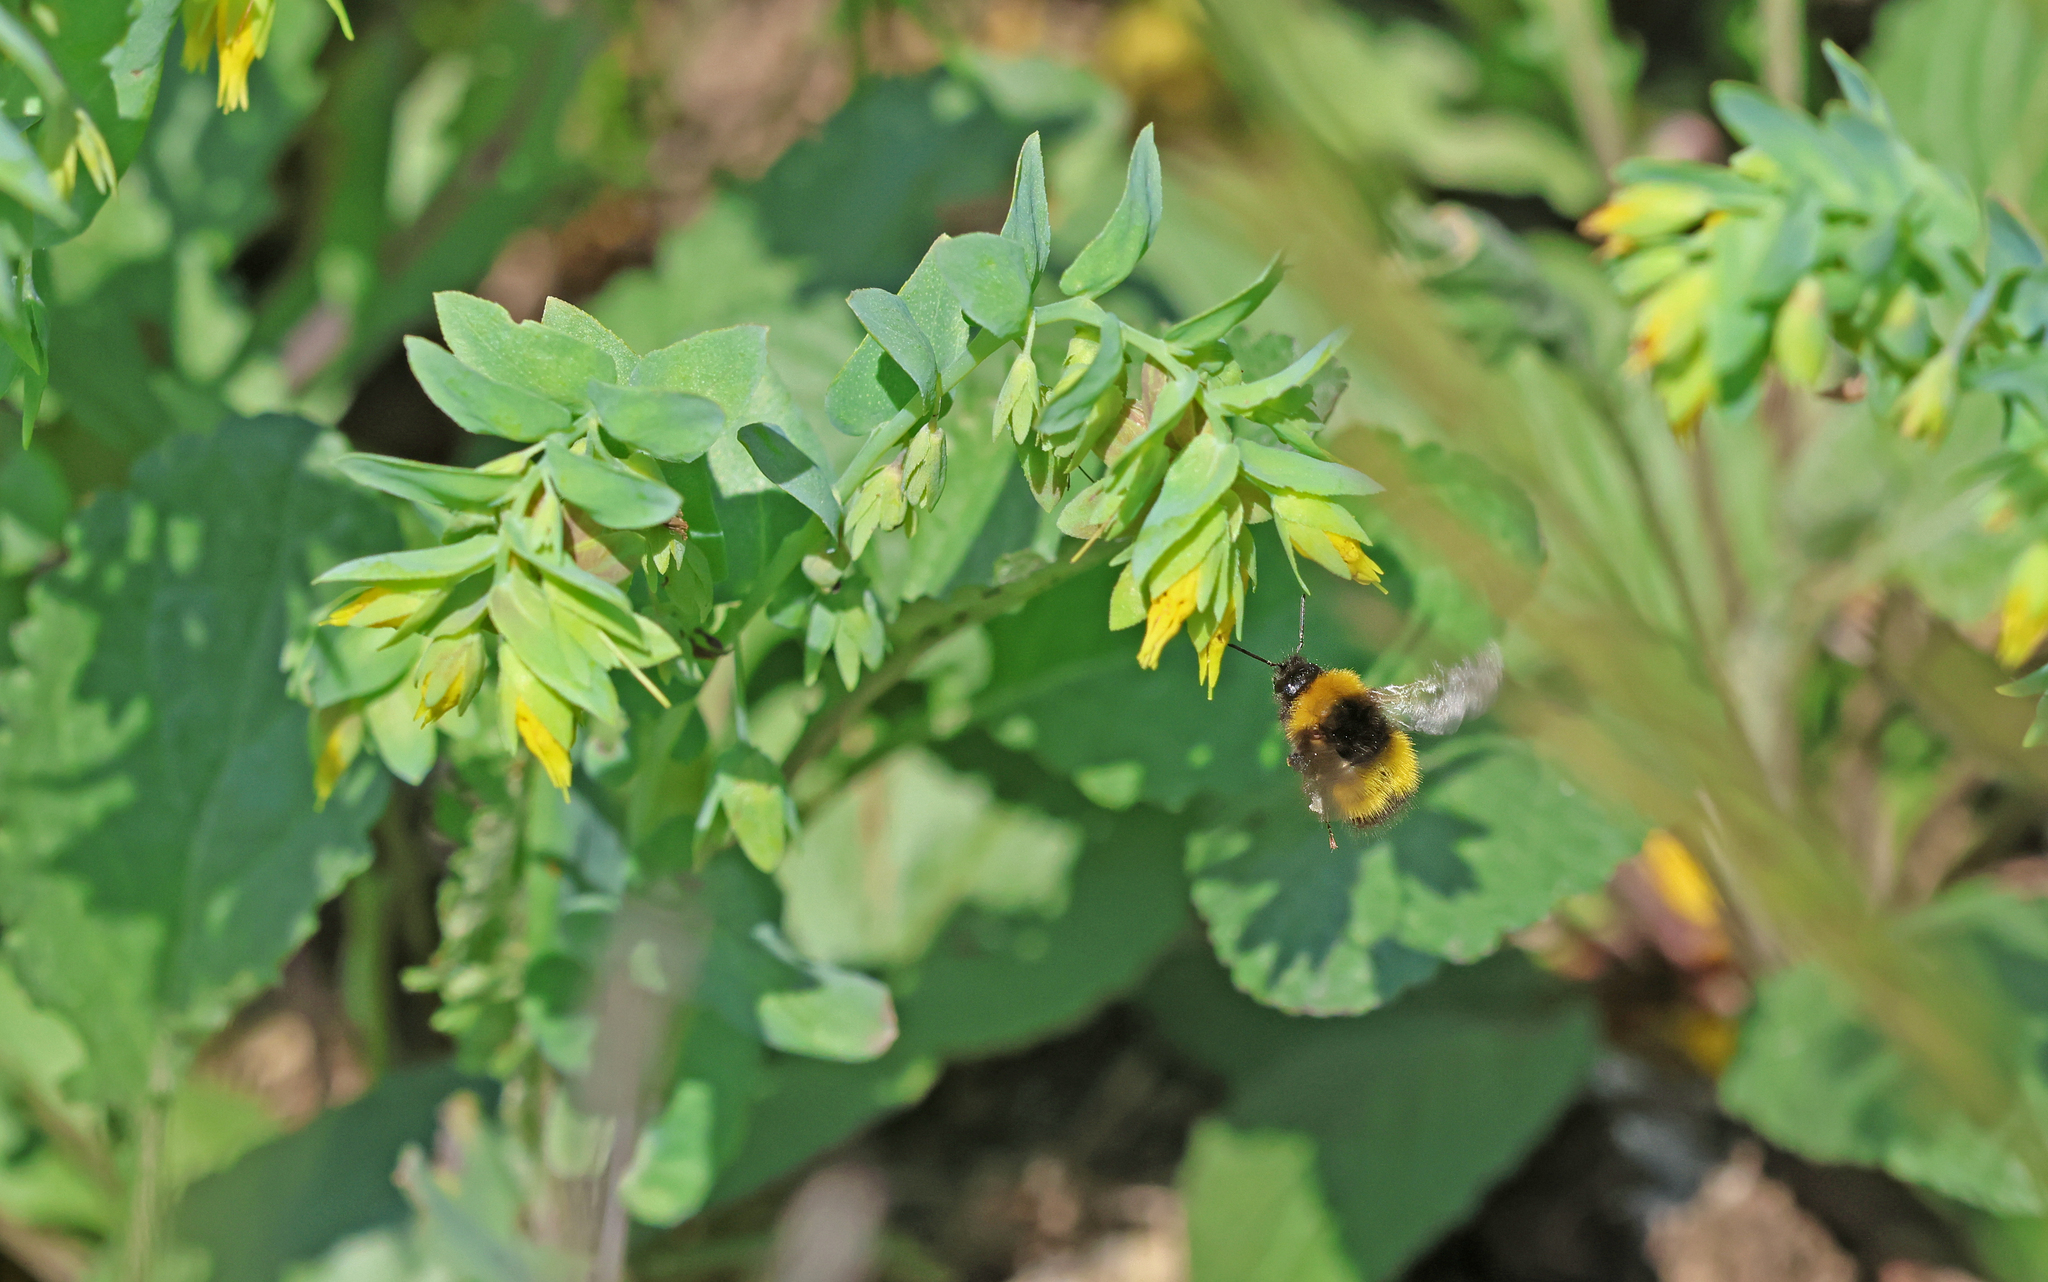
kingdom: Animalia
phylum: Arthropoda
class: Insecta
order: Hymenoptera
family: Apidae
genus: Bombus
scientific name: Bombus haematurus
